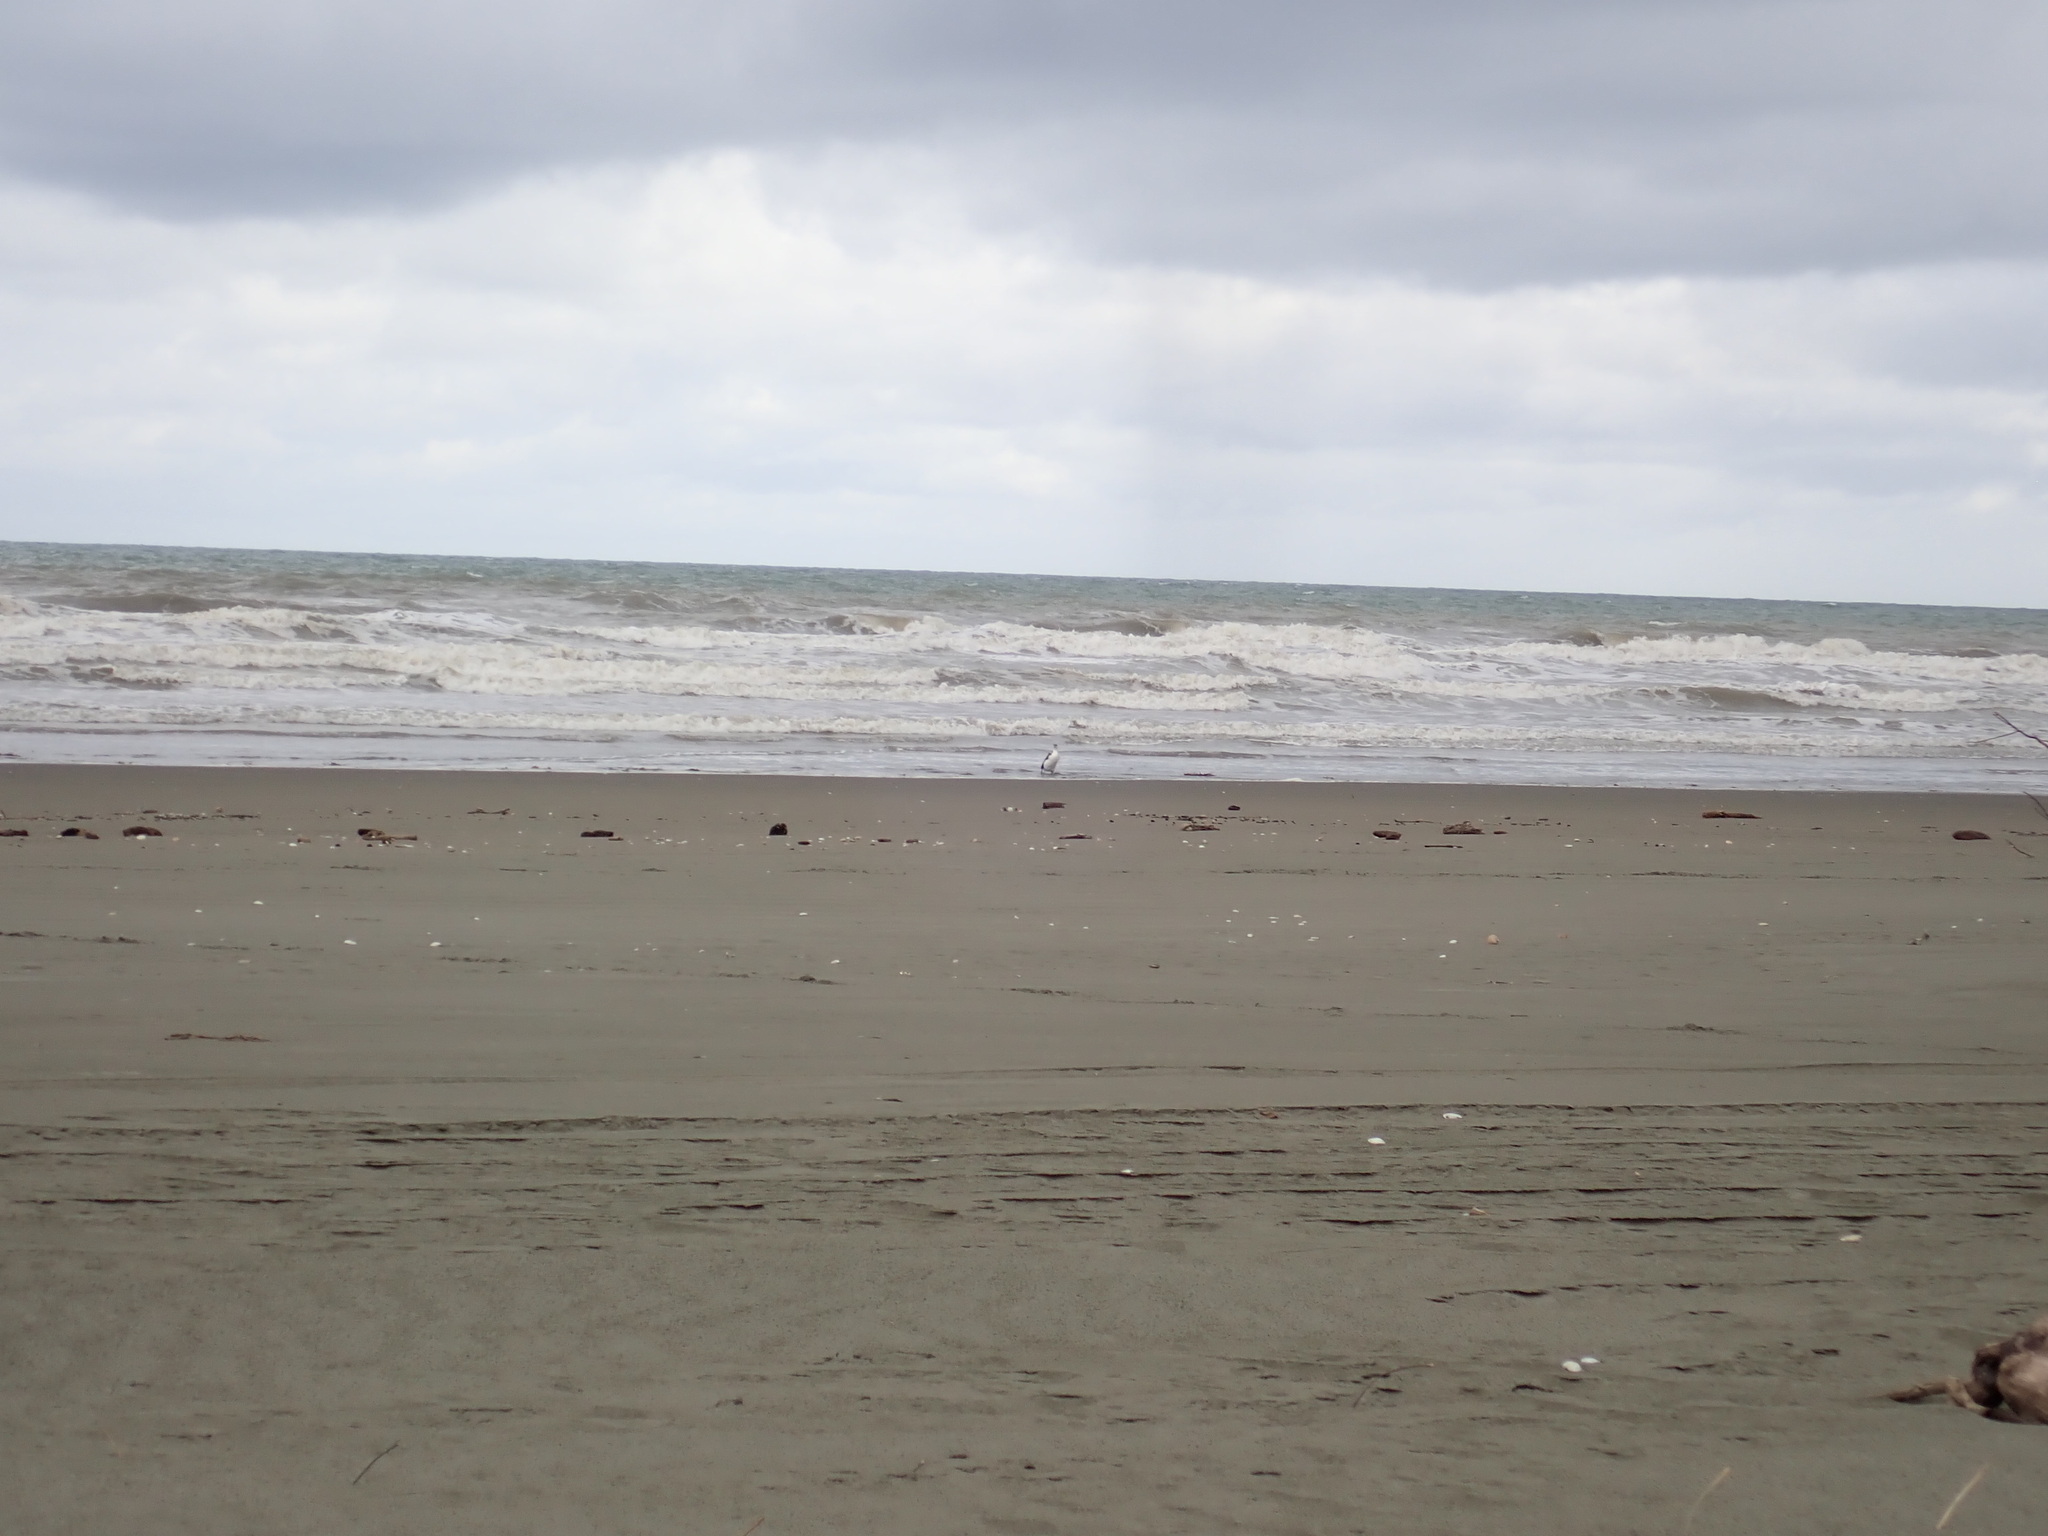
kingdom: Animalia
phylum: Chordata
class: Aves
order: Suliformes
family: Phalacrocoracidae
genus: Phalacrocorax
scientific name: Phalacrocorax varius
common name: Pied cormorant
